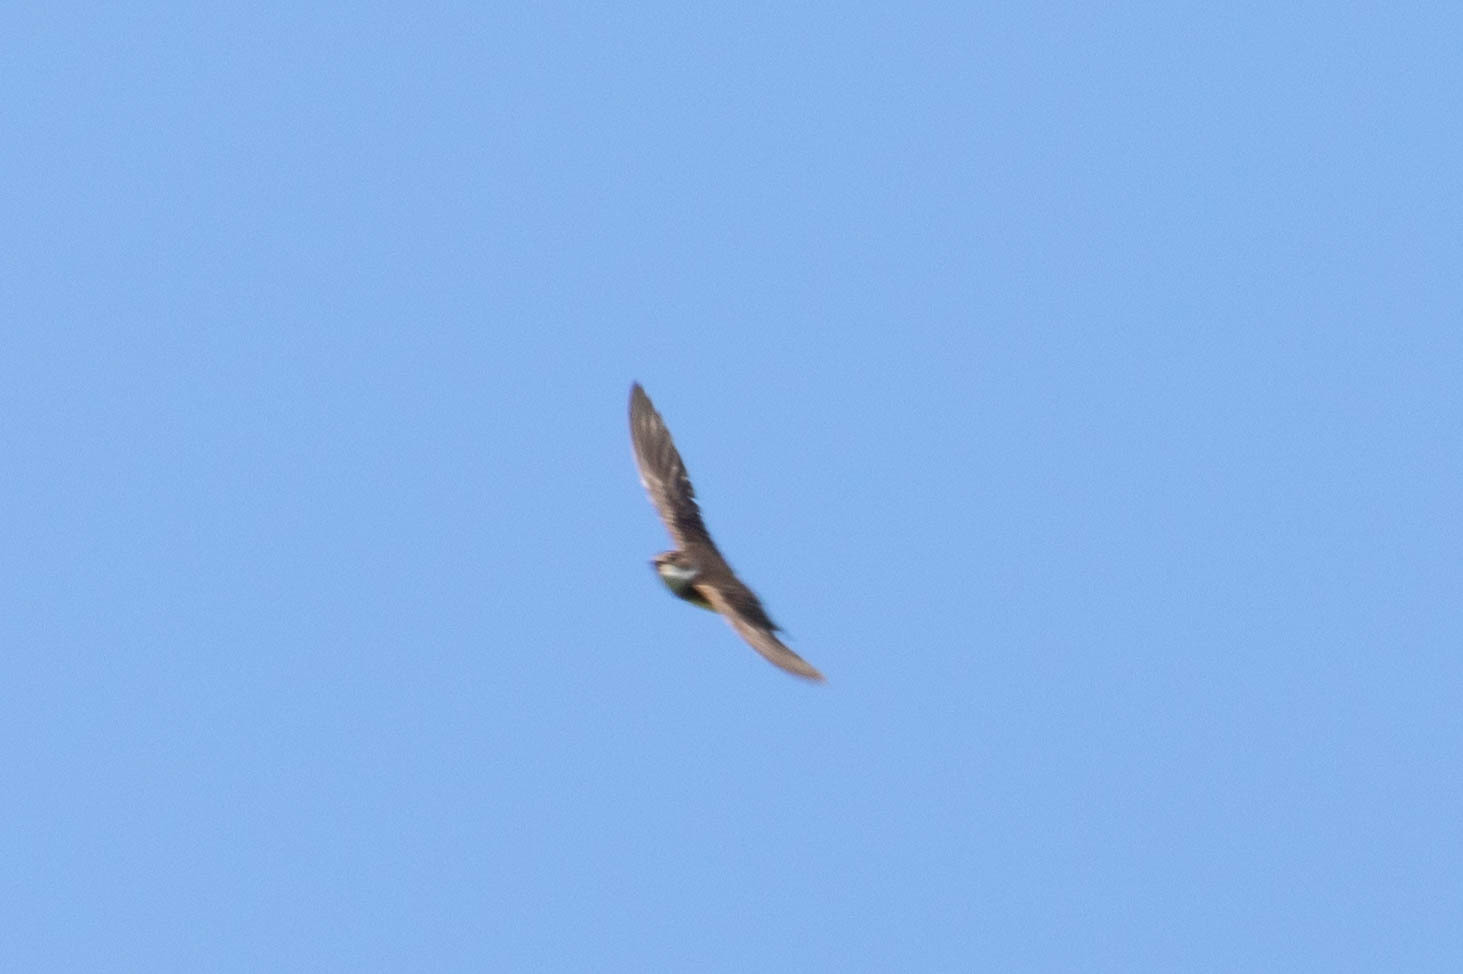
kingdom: Animalia
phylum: Chordata
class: Aves
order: Passeriformes
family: Hirundinidae
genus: Riparia
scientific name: Riparia riparia
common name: Sand martin
